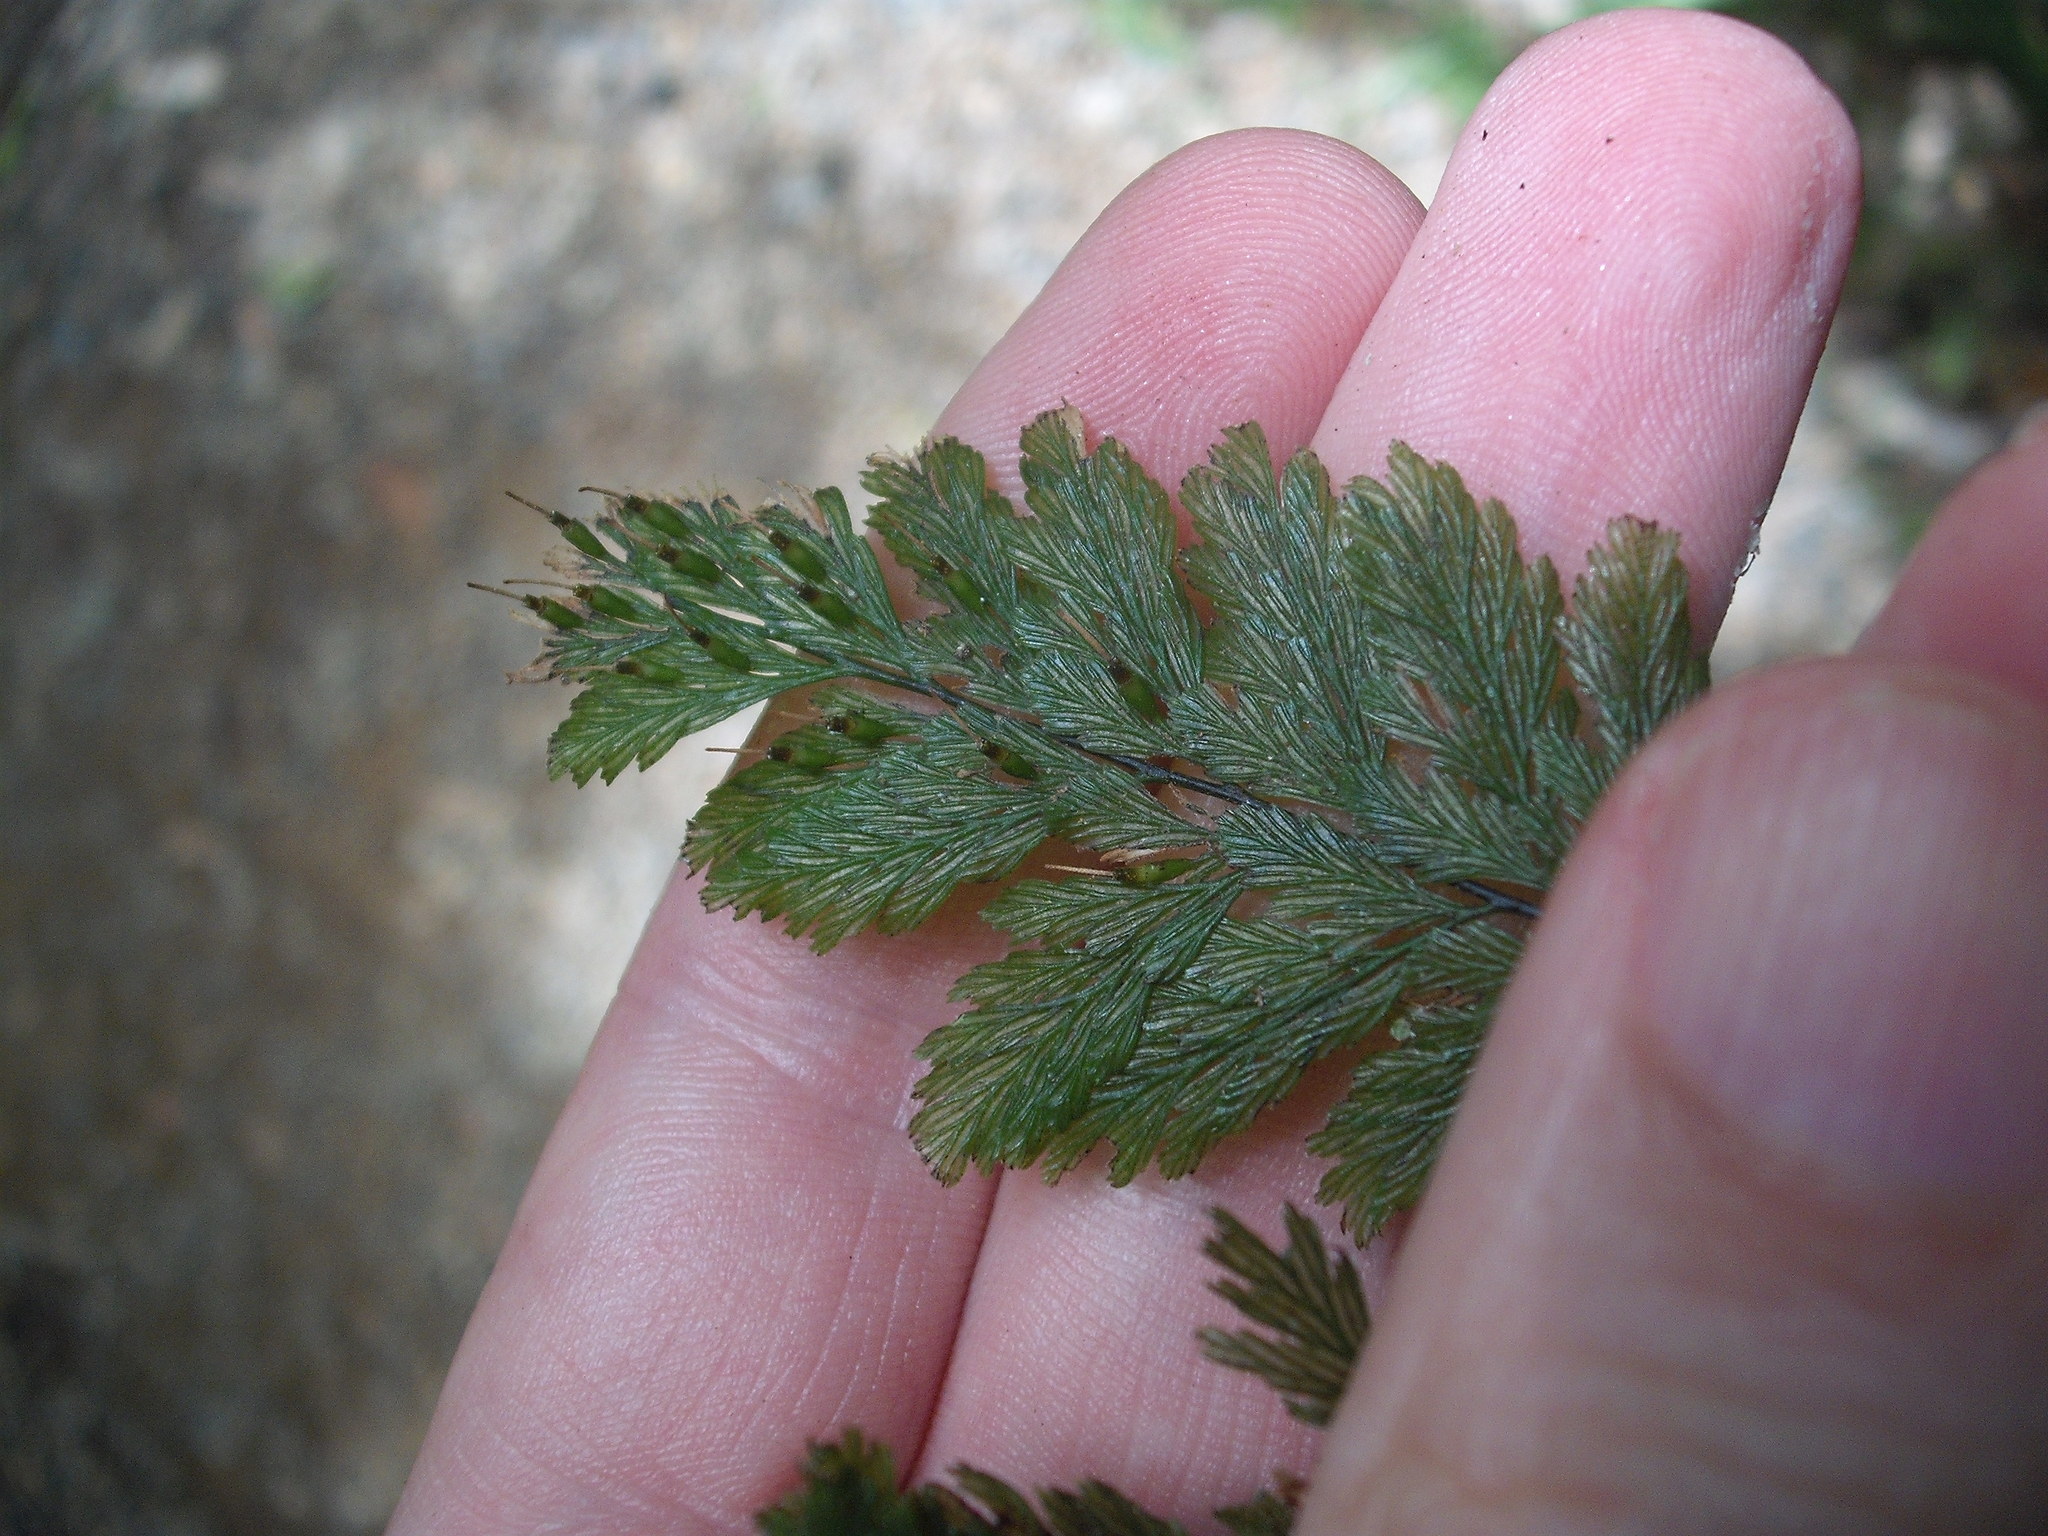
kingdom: Plantae
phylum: Tracheophyta
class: Polypodiopsida
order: Hymenophyllales
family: Hymenophyllaceae
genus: Abrodictyum
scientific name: Abrodictyum elongatum
